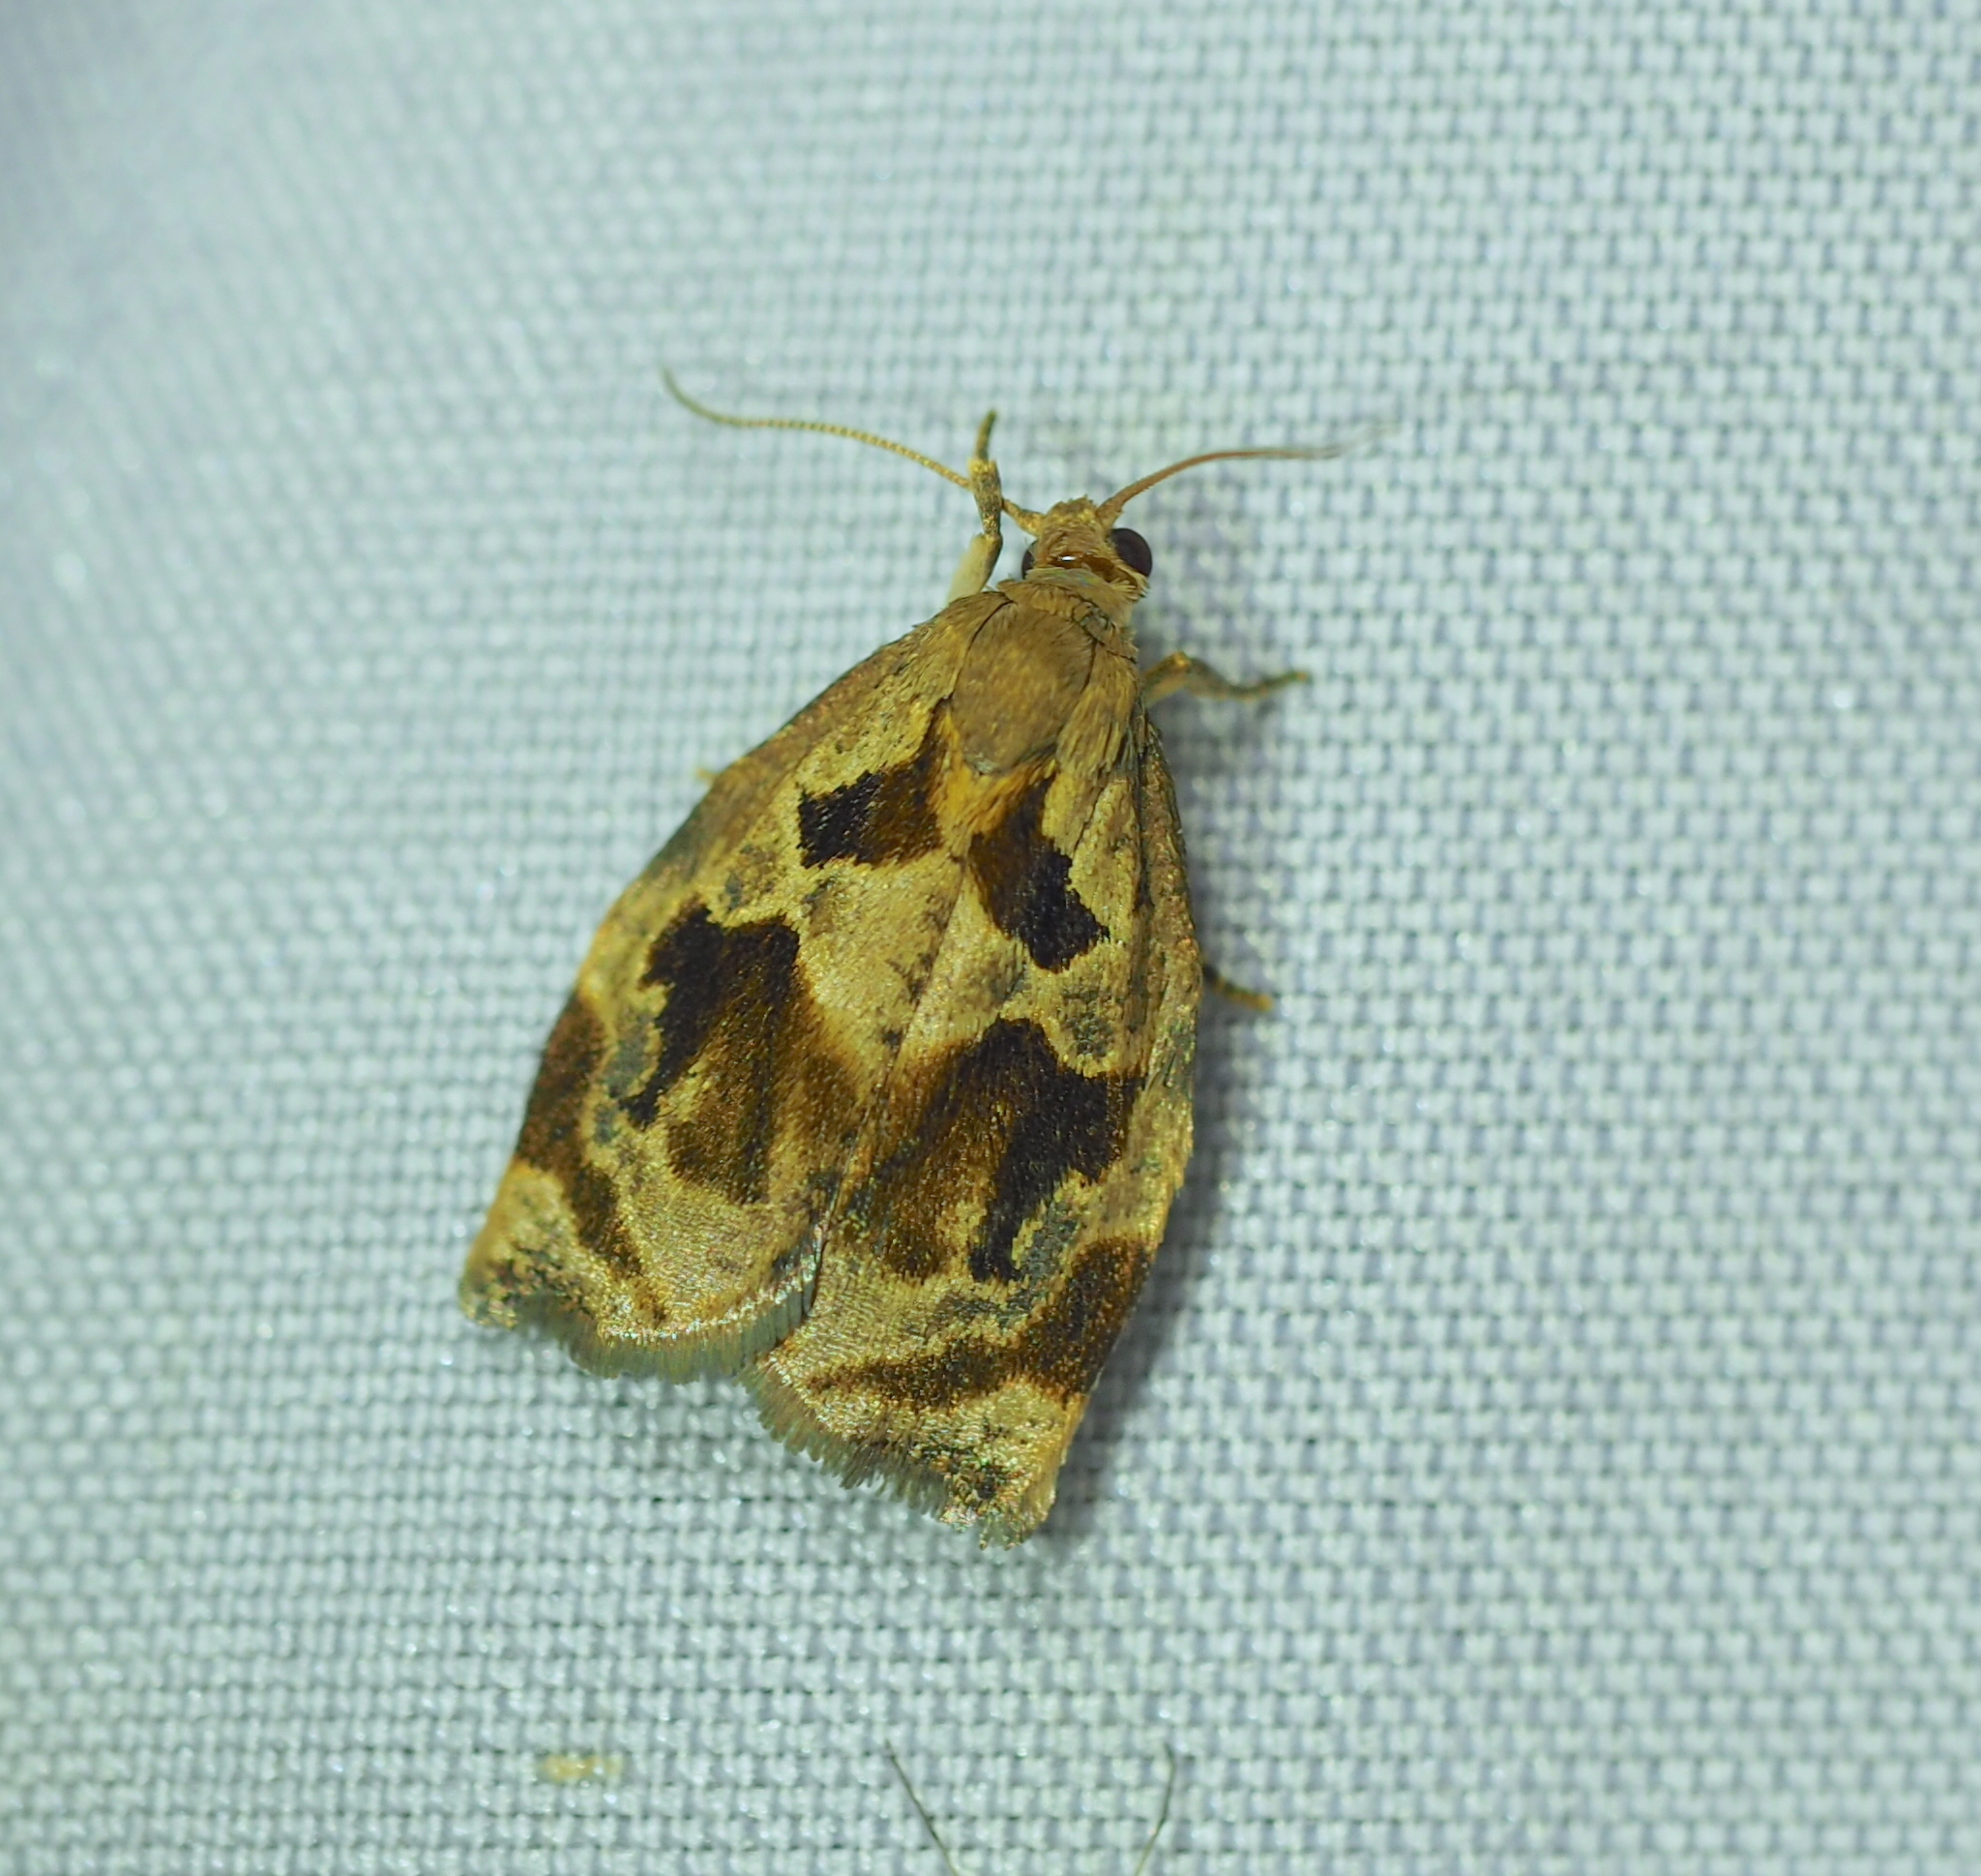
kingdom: Animalia
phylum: Arthropoda
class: Insecta
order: Lepidoptera
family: Tortricidae
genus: Archips
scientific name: Archips crataegana
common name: Brown oak tortrix
